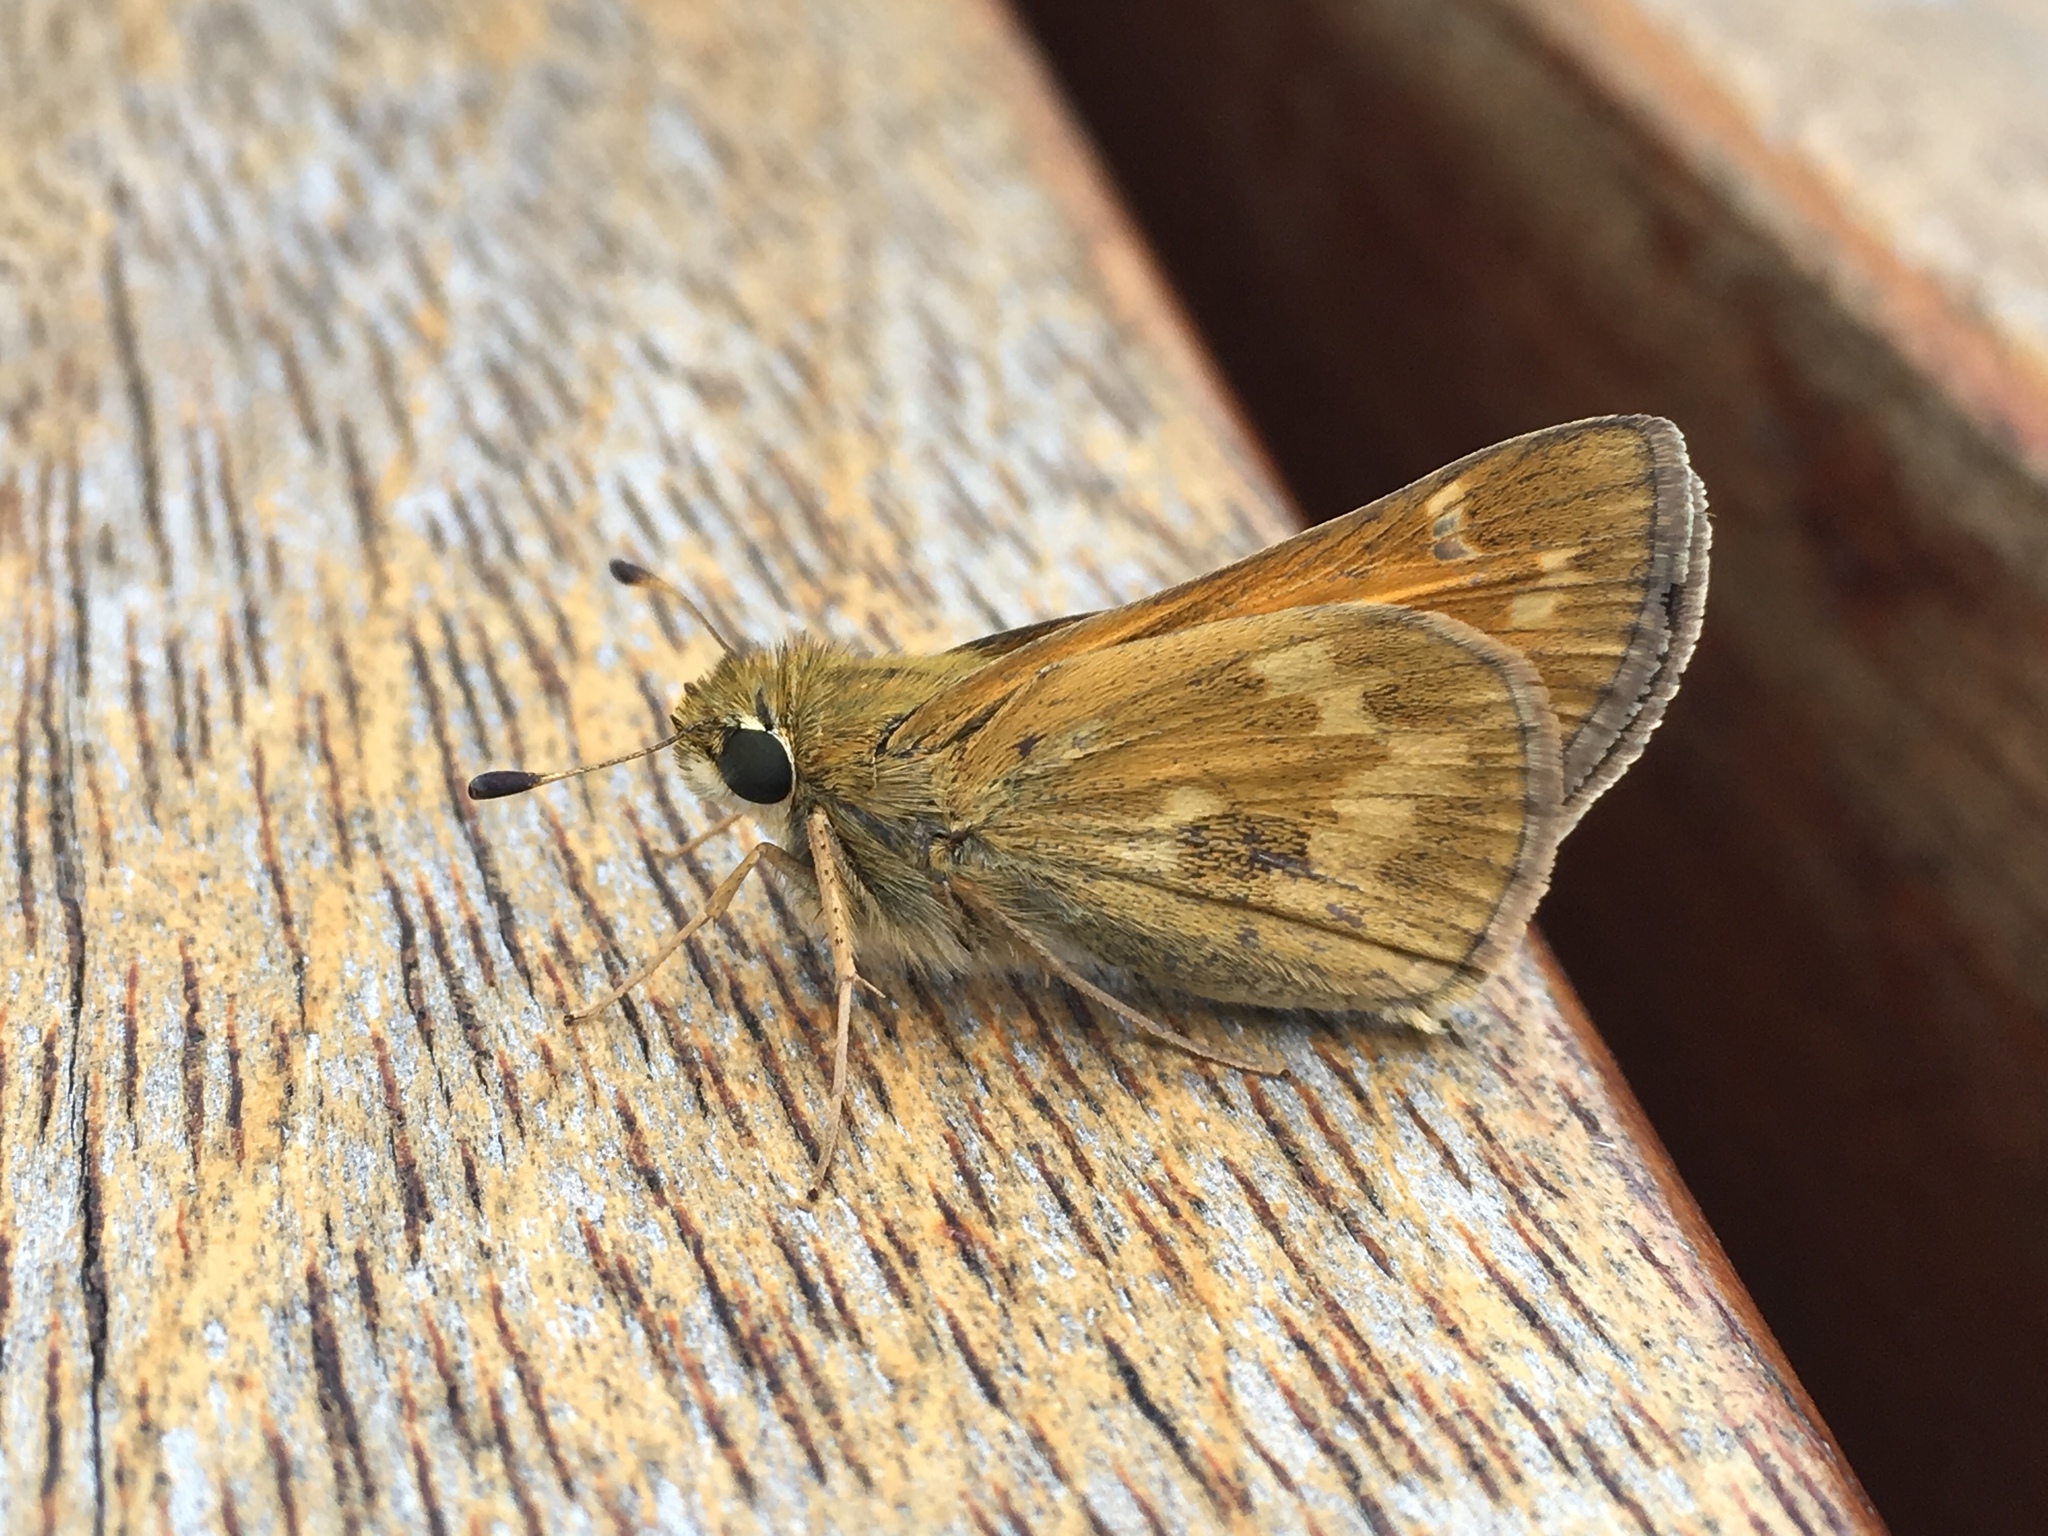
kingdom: Animalia
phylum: Arthropoda
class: Insecta
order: Lepidoptera
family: Hesperiidae
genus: Atalopedes
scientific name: Atalopedes
